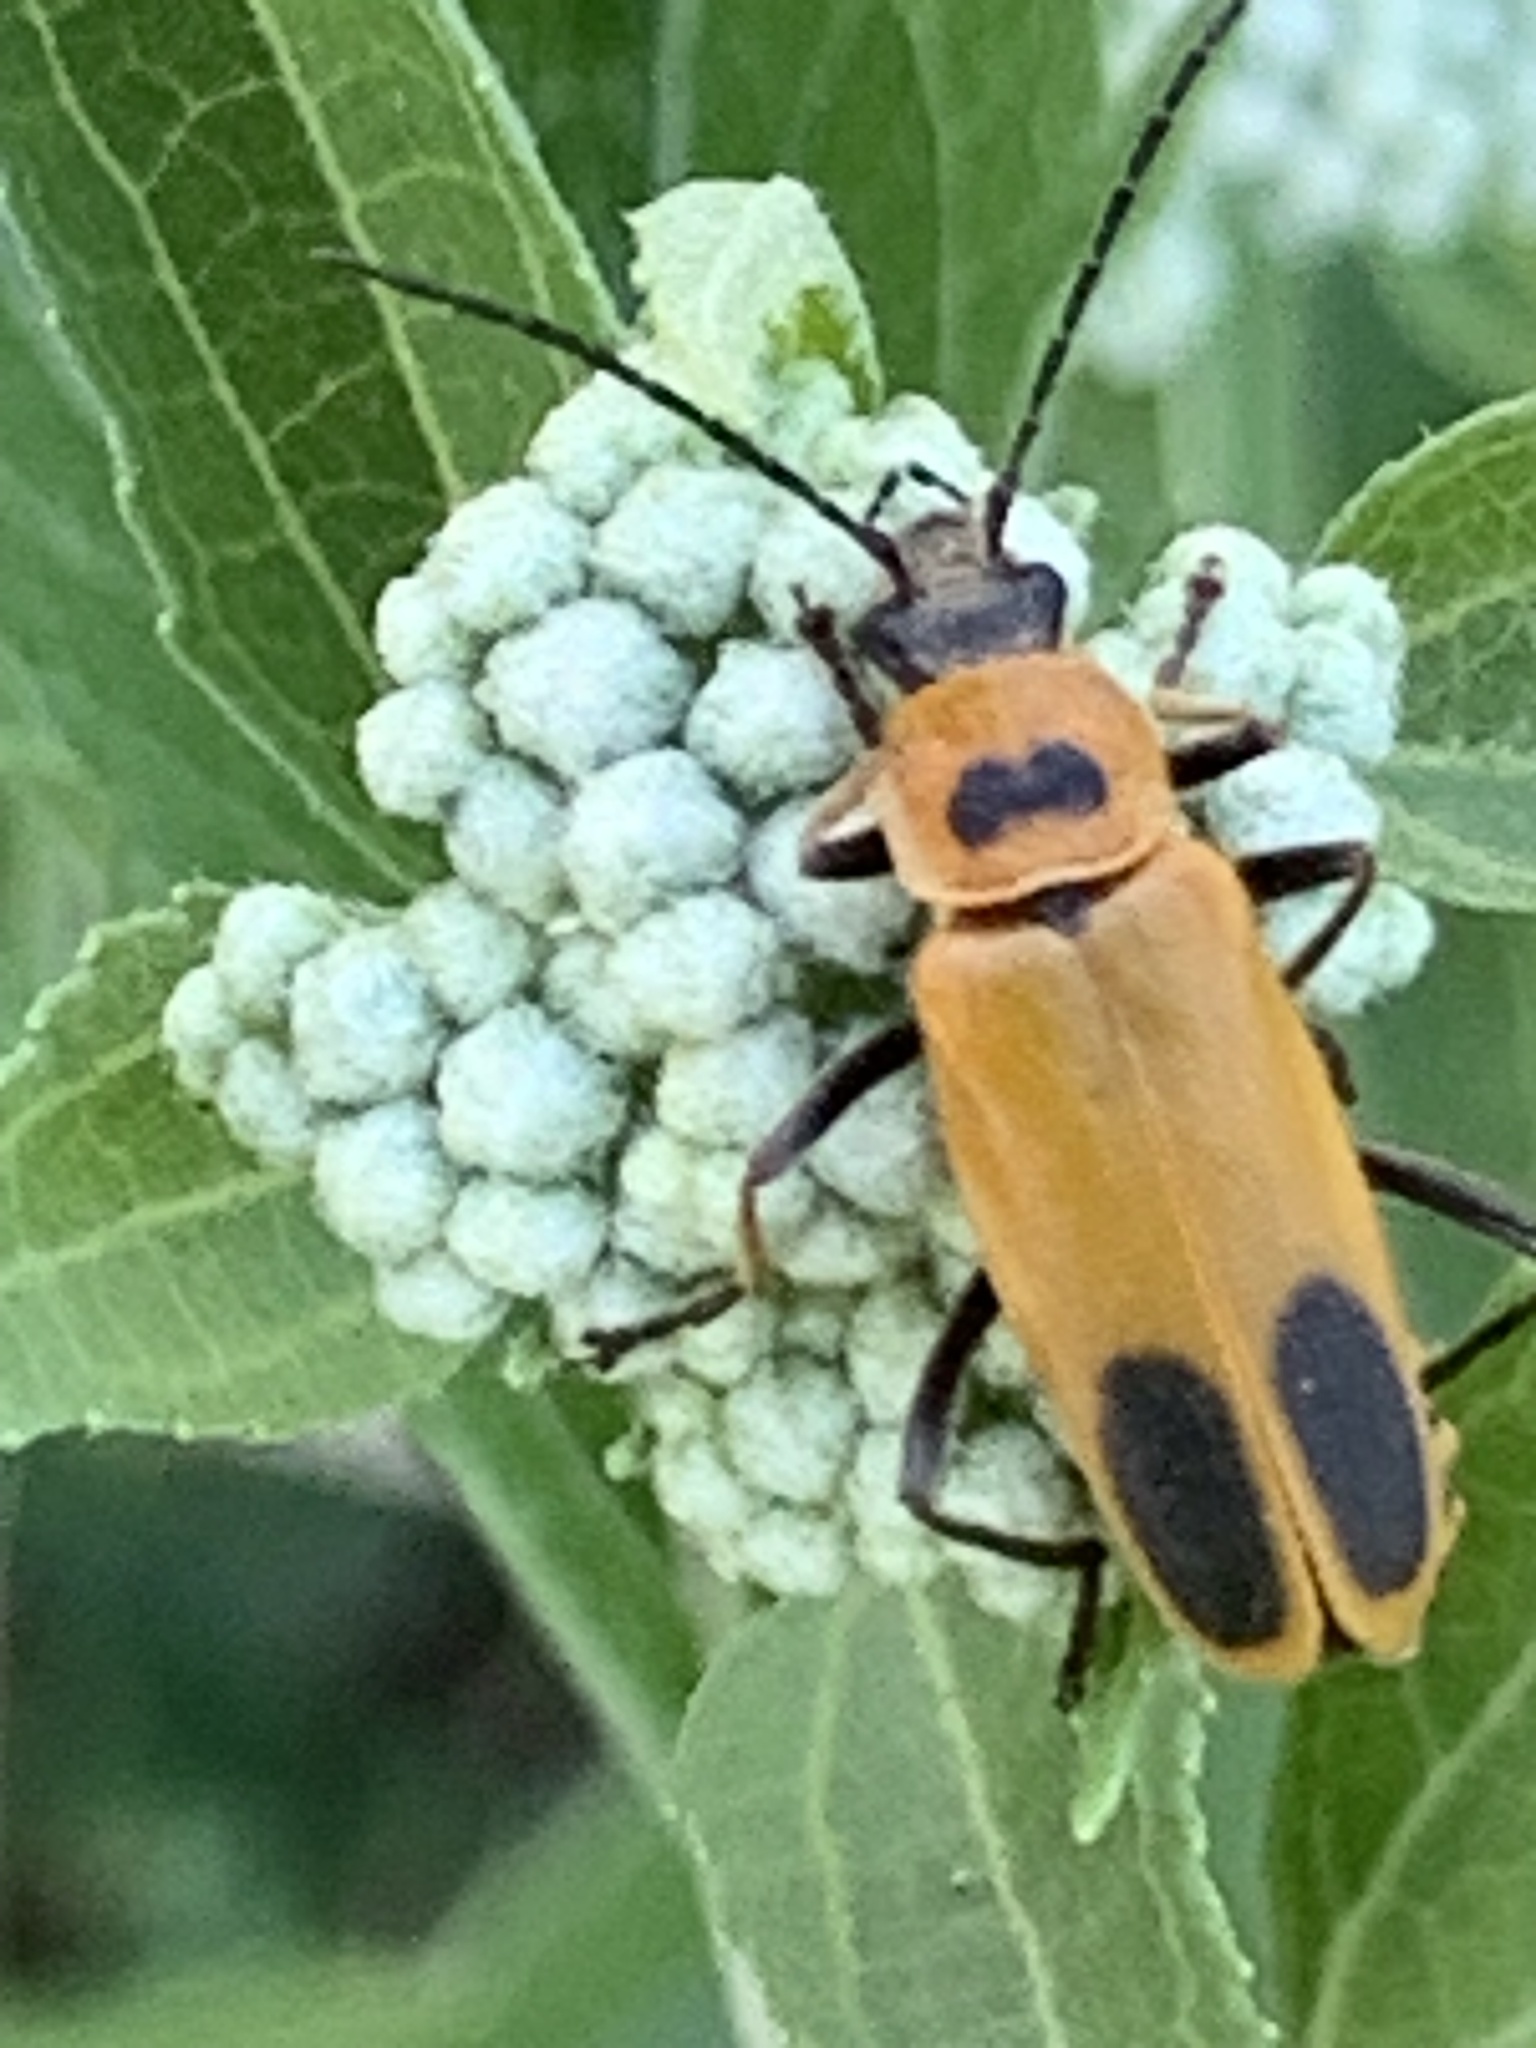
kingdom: Animalia
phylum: Arthropoda
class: Insecta
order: Coleoptera
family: Cantharidae
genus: Chauliognathus
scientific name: Chauliognathus pensylvanicus
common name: Goldenrod soldier beetle
